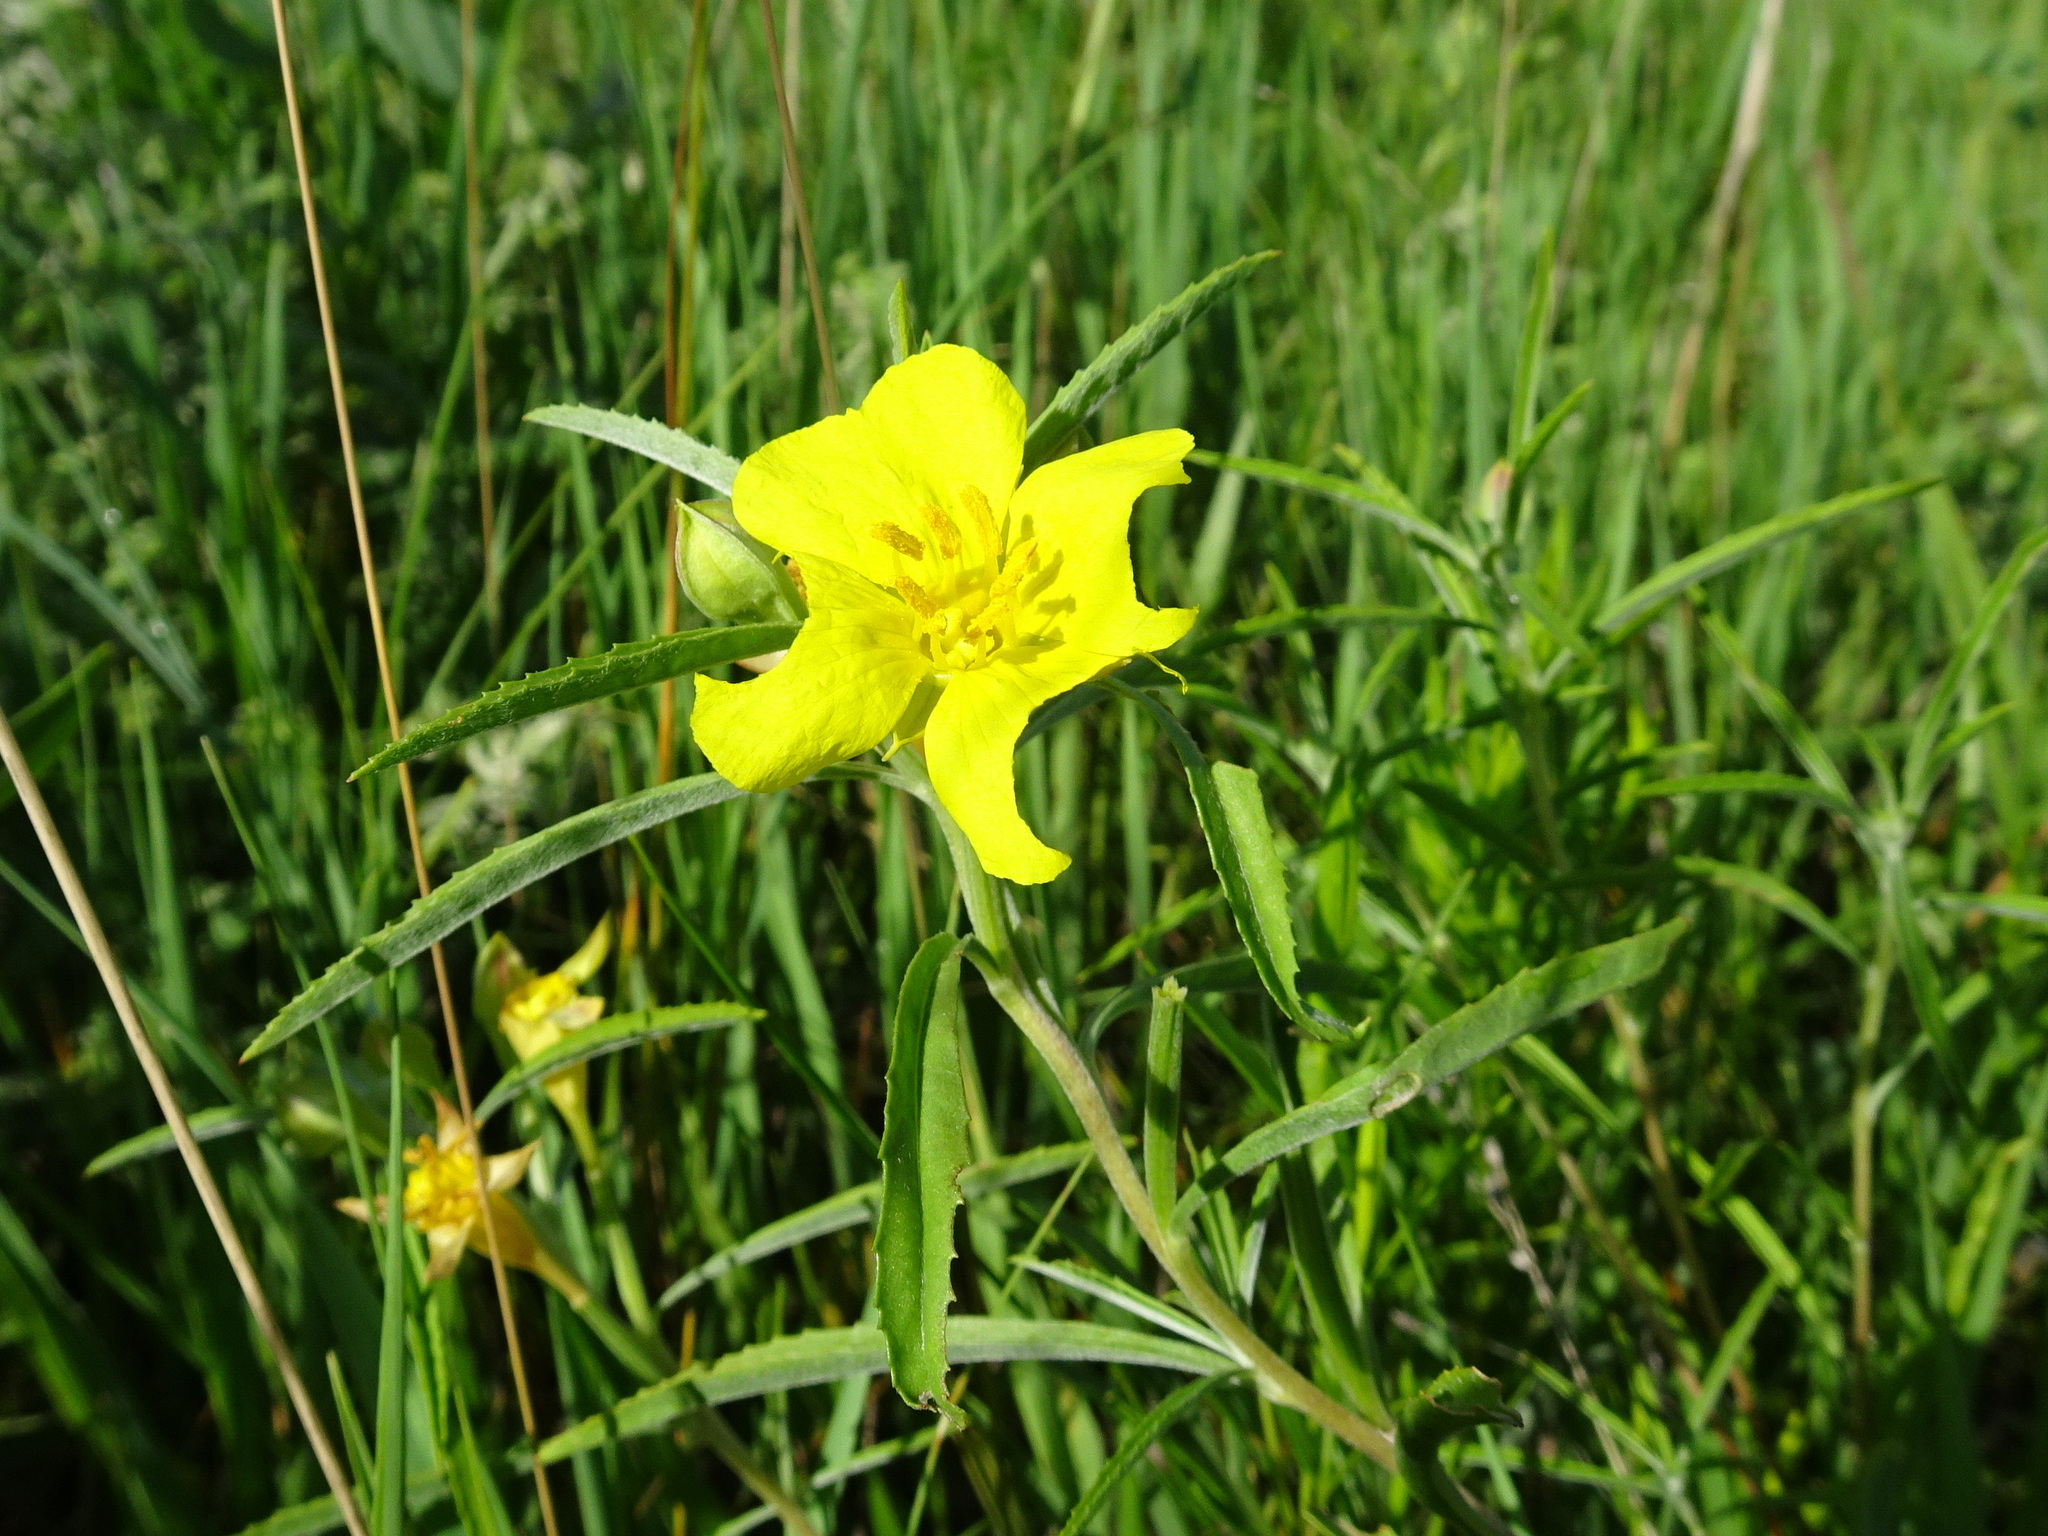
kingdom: Plantae
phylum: Tracheophyta
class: Magnoliopsida
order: Myrtales
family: Onagraceae
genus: Oenothera
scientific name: Oenothera serrulata
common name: Half-shrub calylophus
